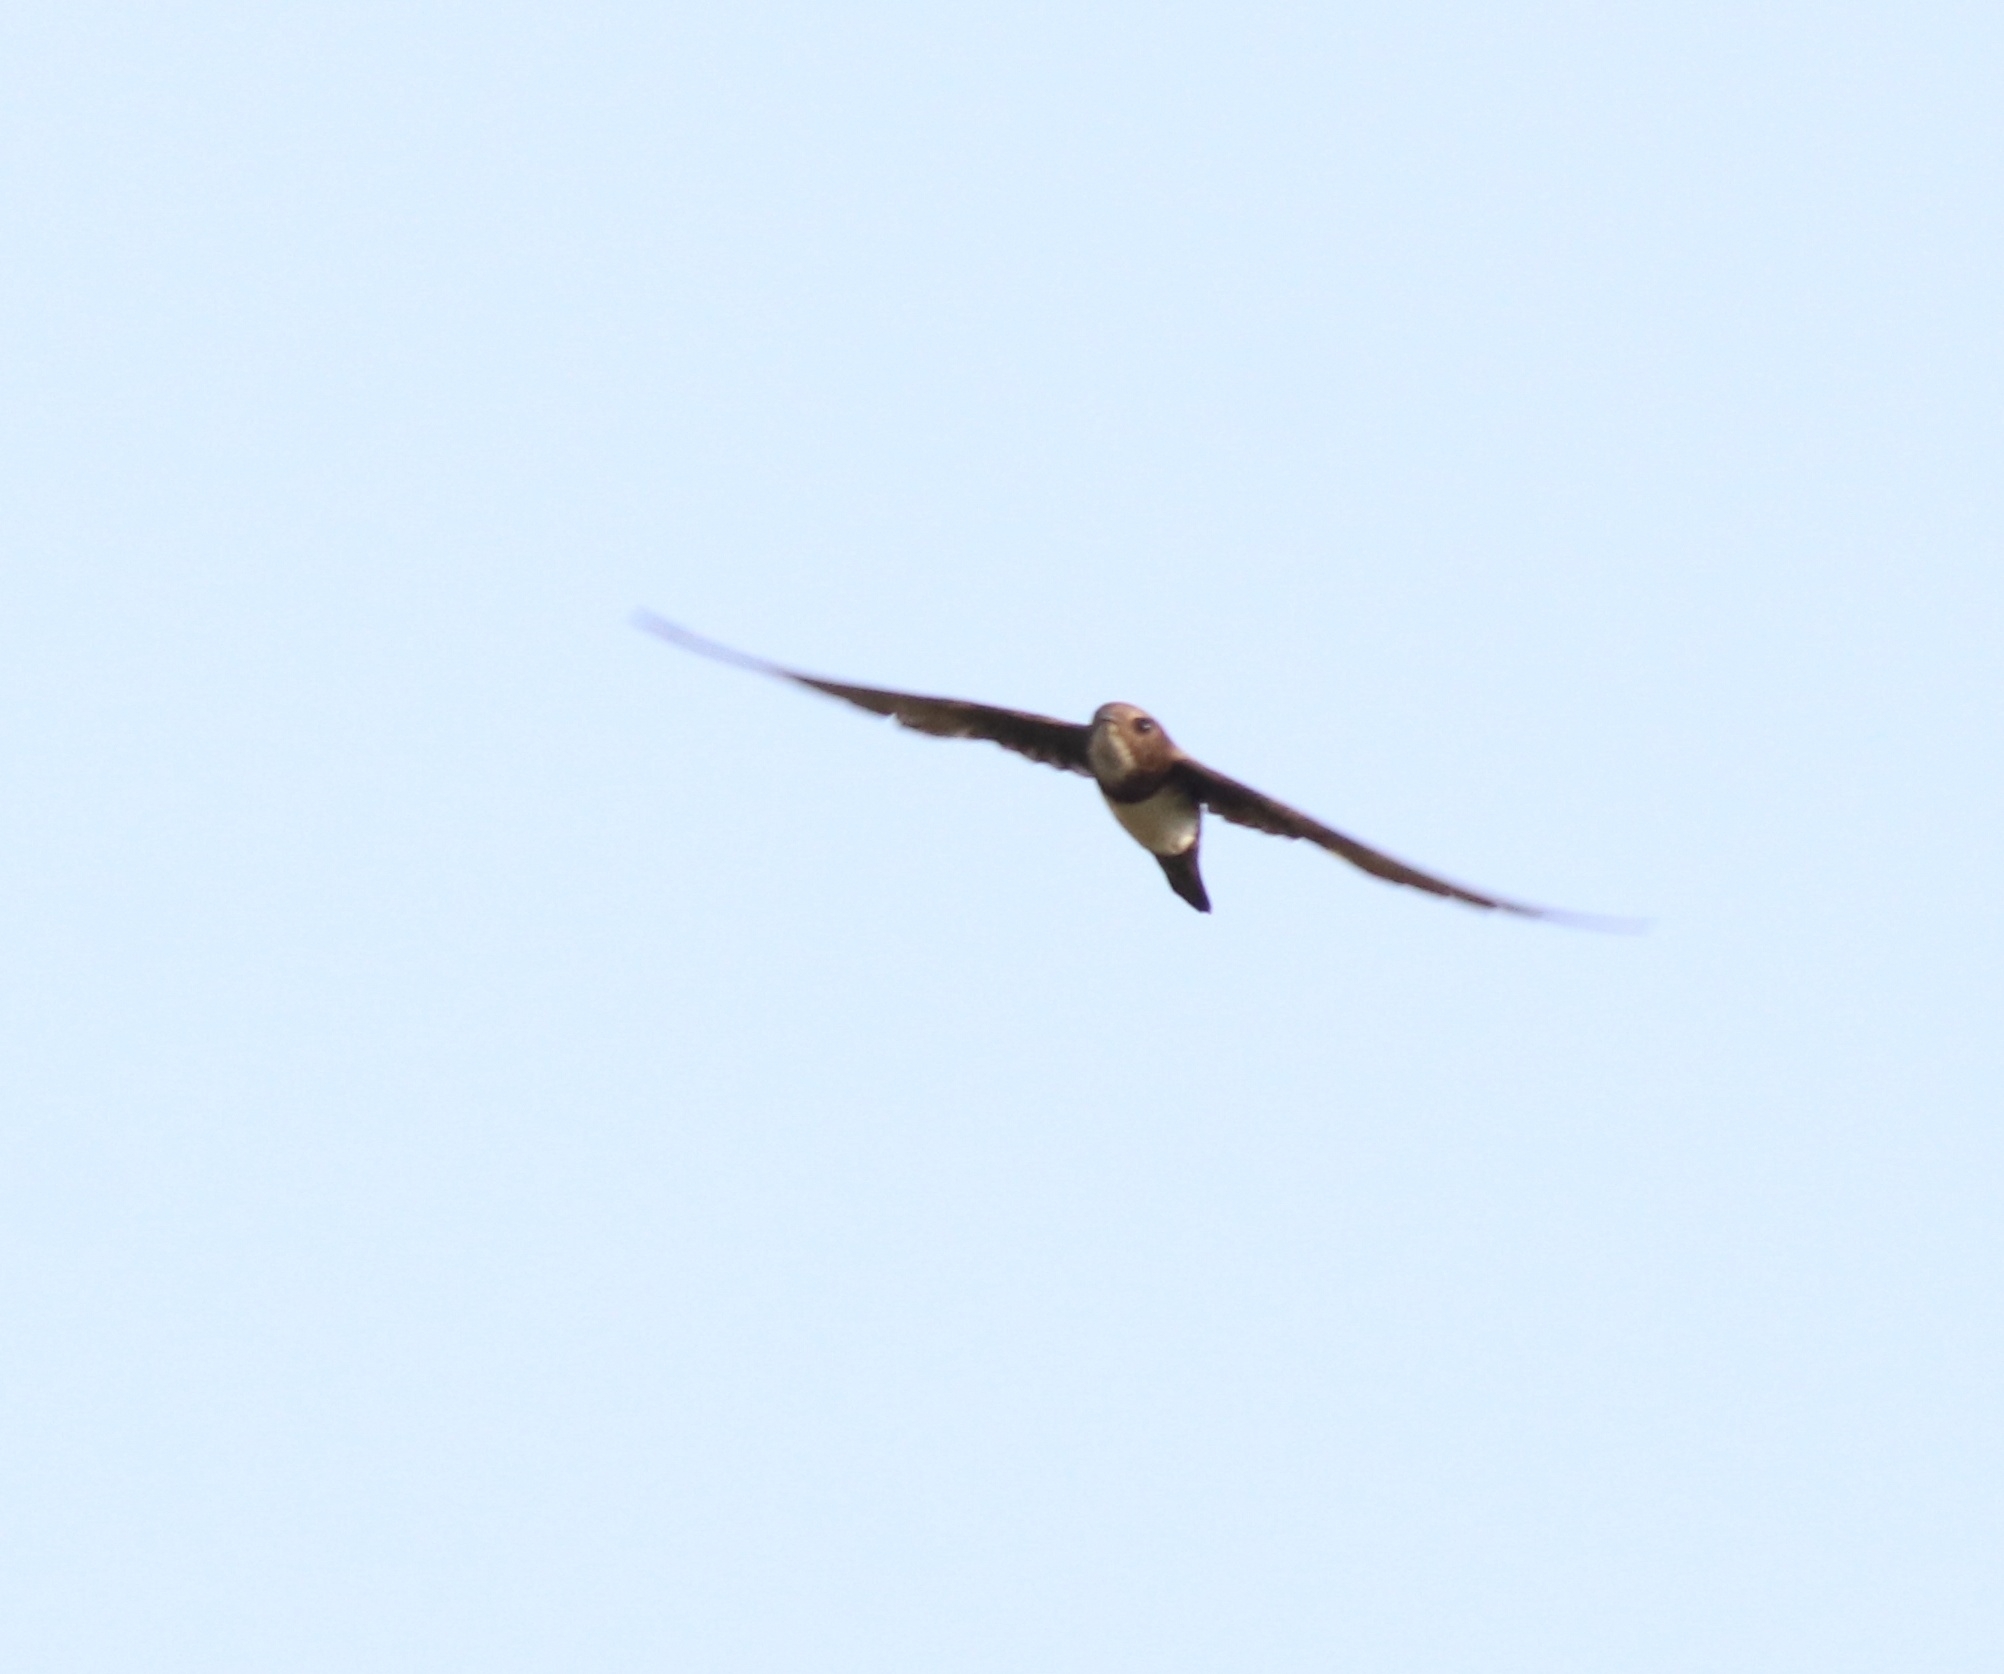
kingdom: Animalia
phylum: Chordata
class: Aves
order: Apodiformes
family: Apodidae
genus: Tachymarptis
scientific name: Tachymarptis melba
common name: Alpine swift
